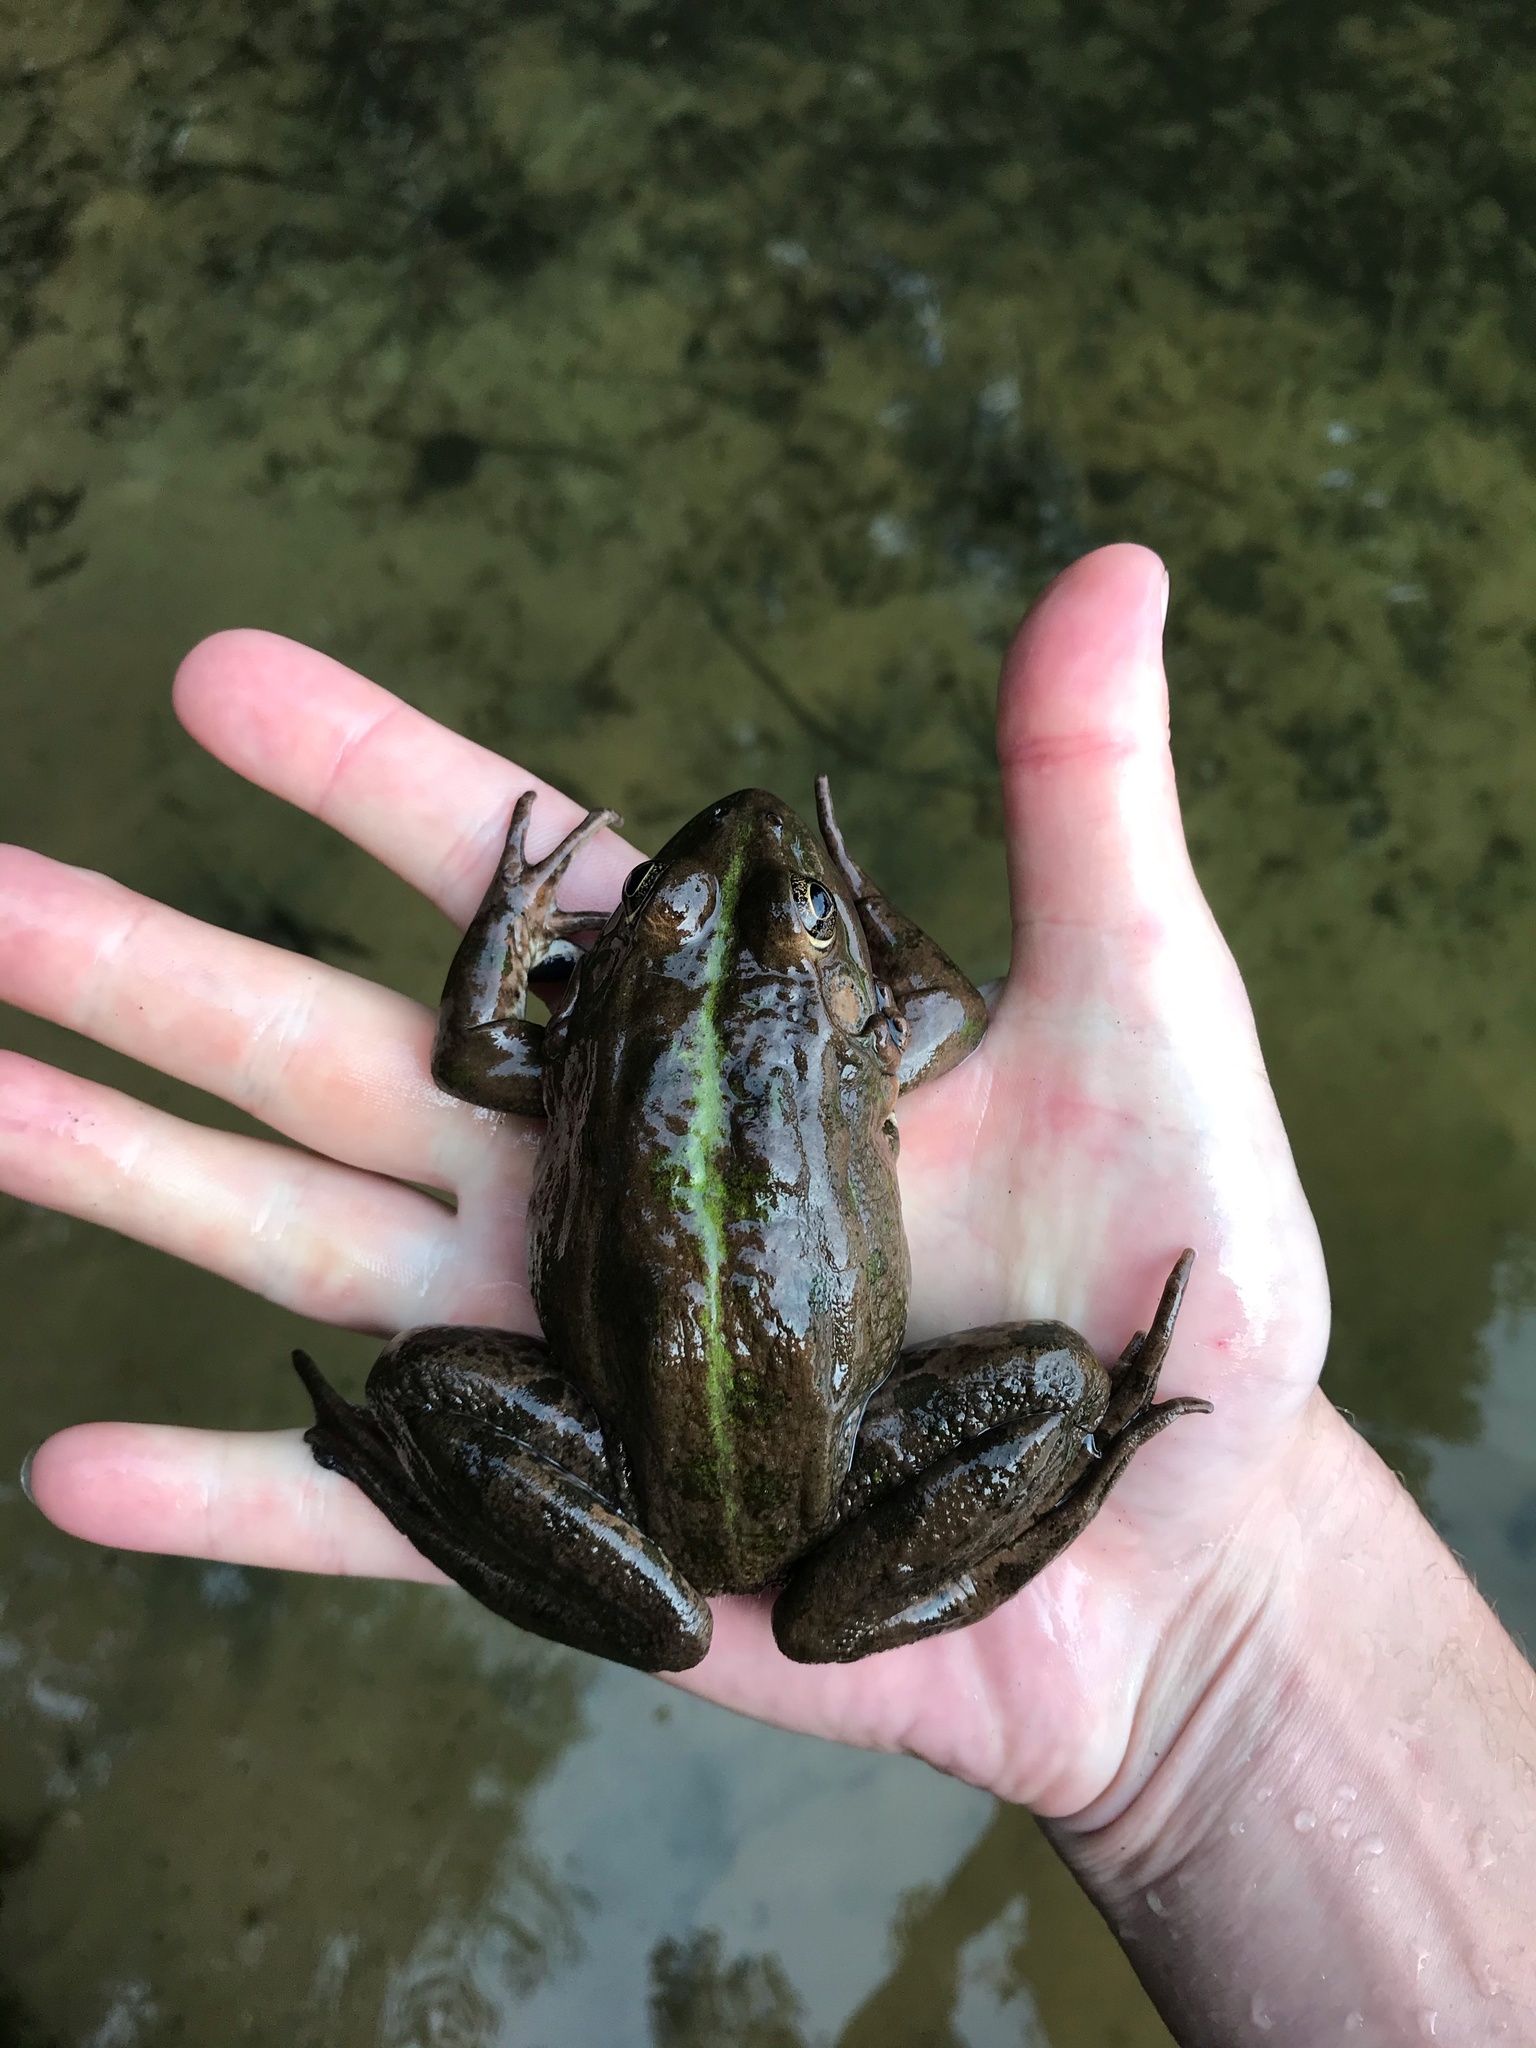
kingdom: Animalia
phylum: Chordata
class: Amphibia
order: Anura
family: Ranidae
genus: Pelophylax
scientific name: Pelophylax ridibundus
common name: Marsh frog
